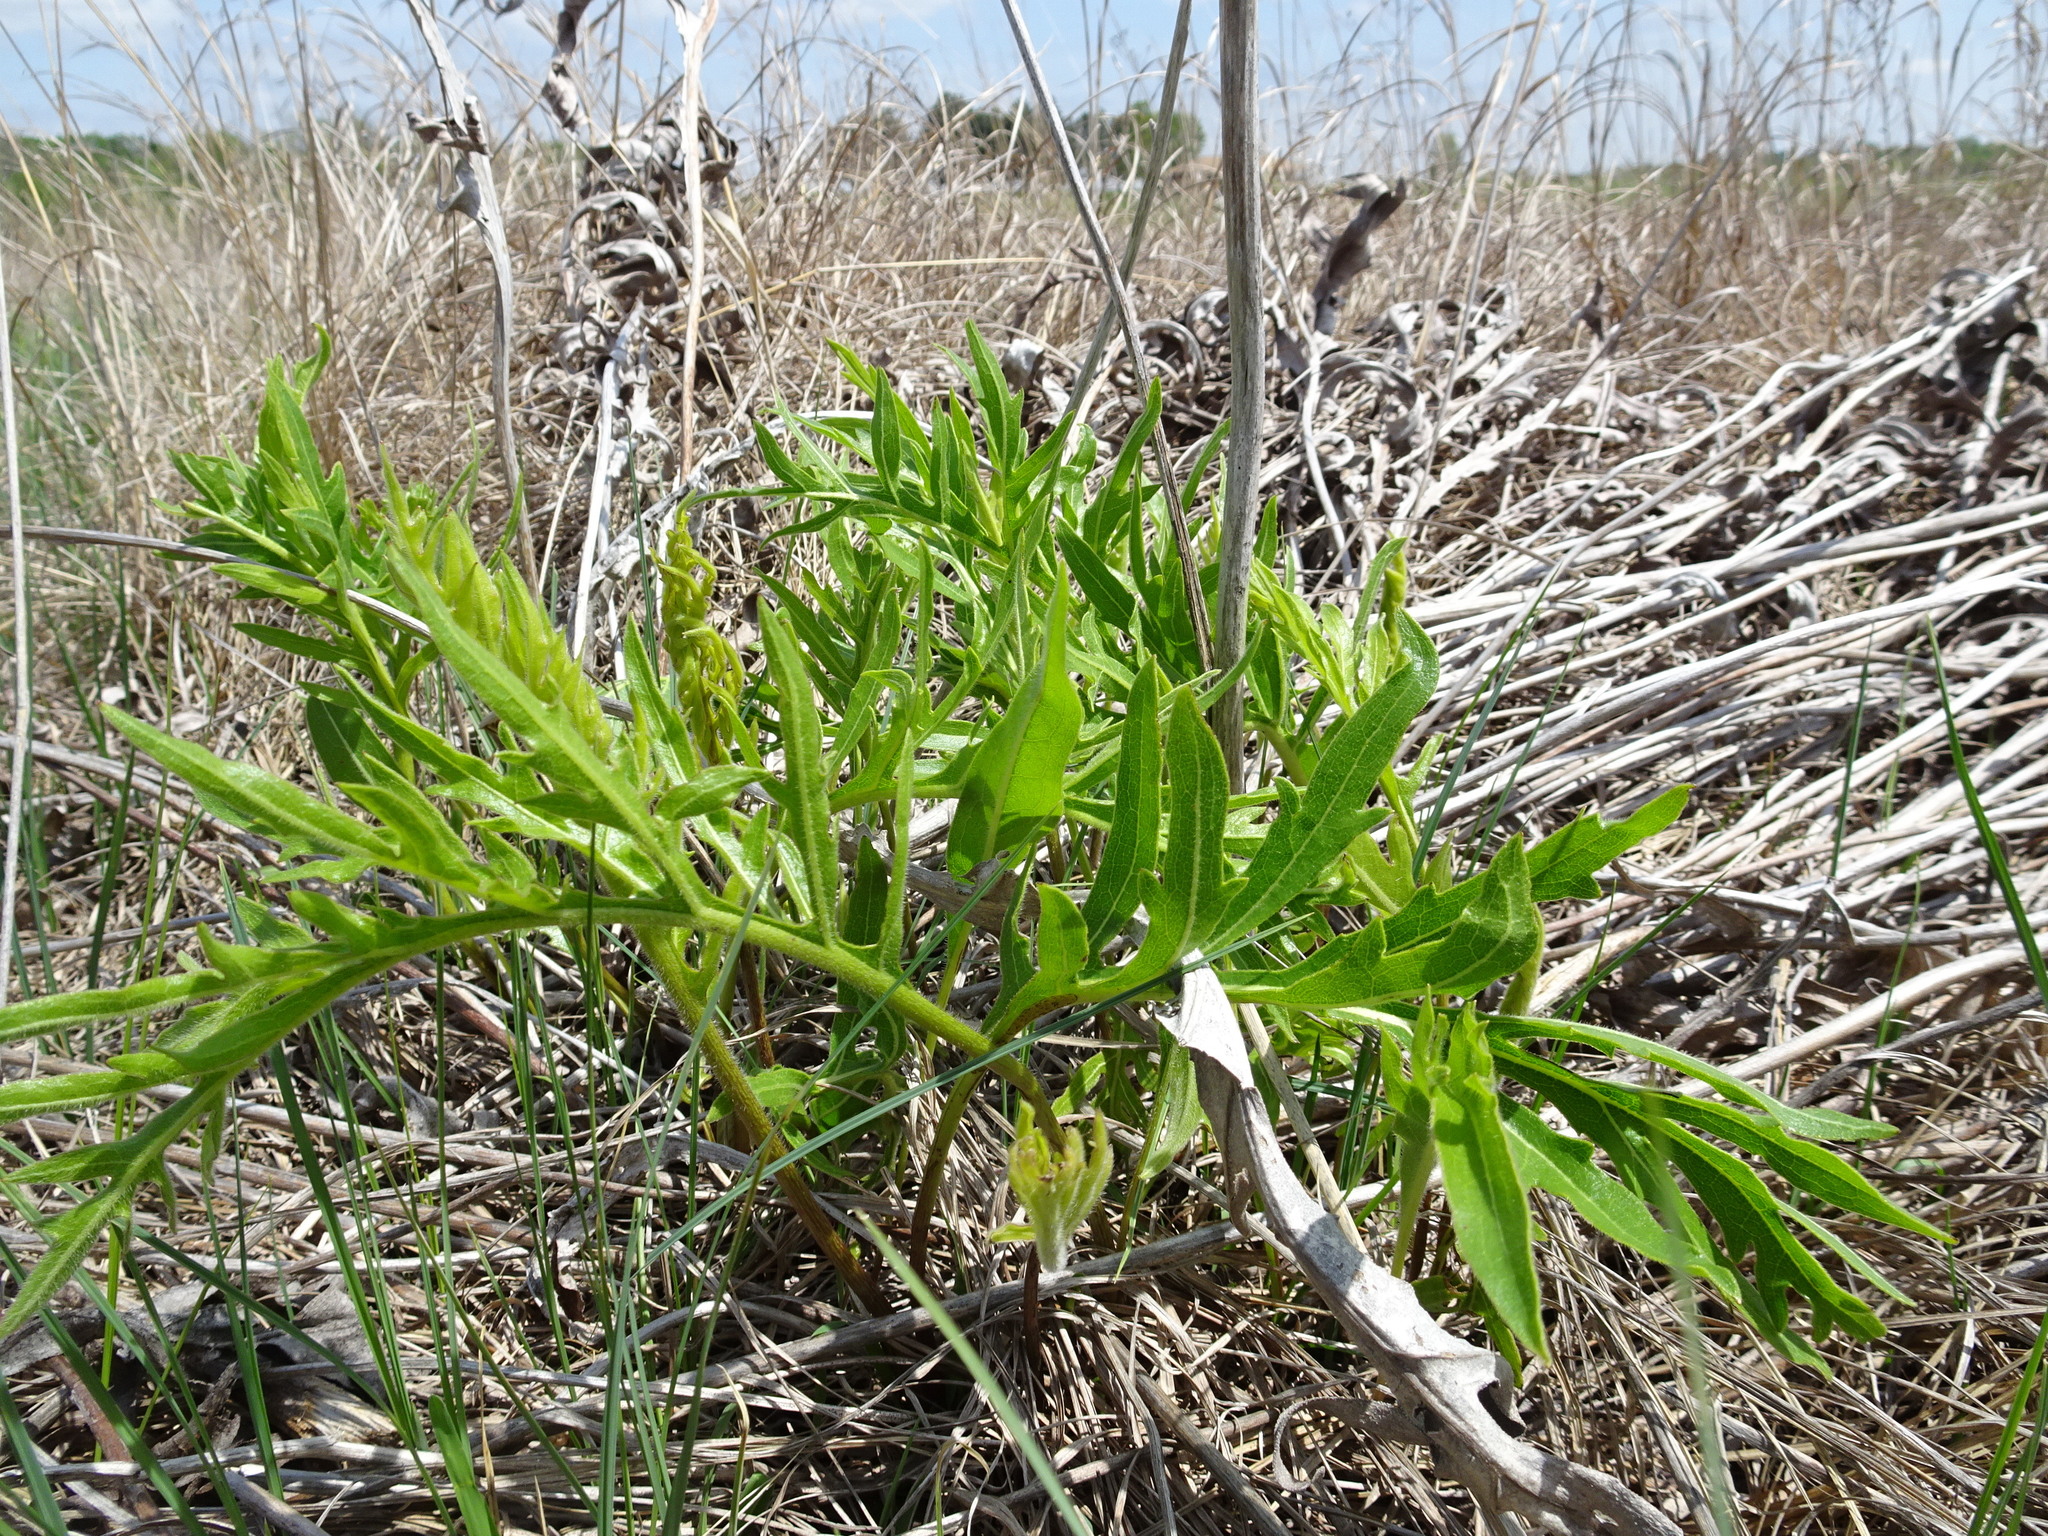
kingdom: Plantae
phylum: Tracheophyta
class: Magnoliopsida
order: Asterales
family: Asteraceae
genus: Silphium
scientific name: Silphium laciniatum
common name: Polarplant
